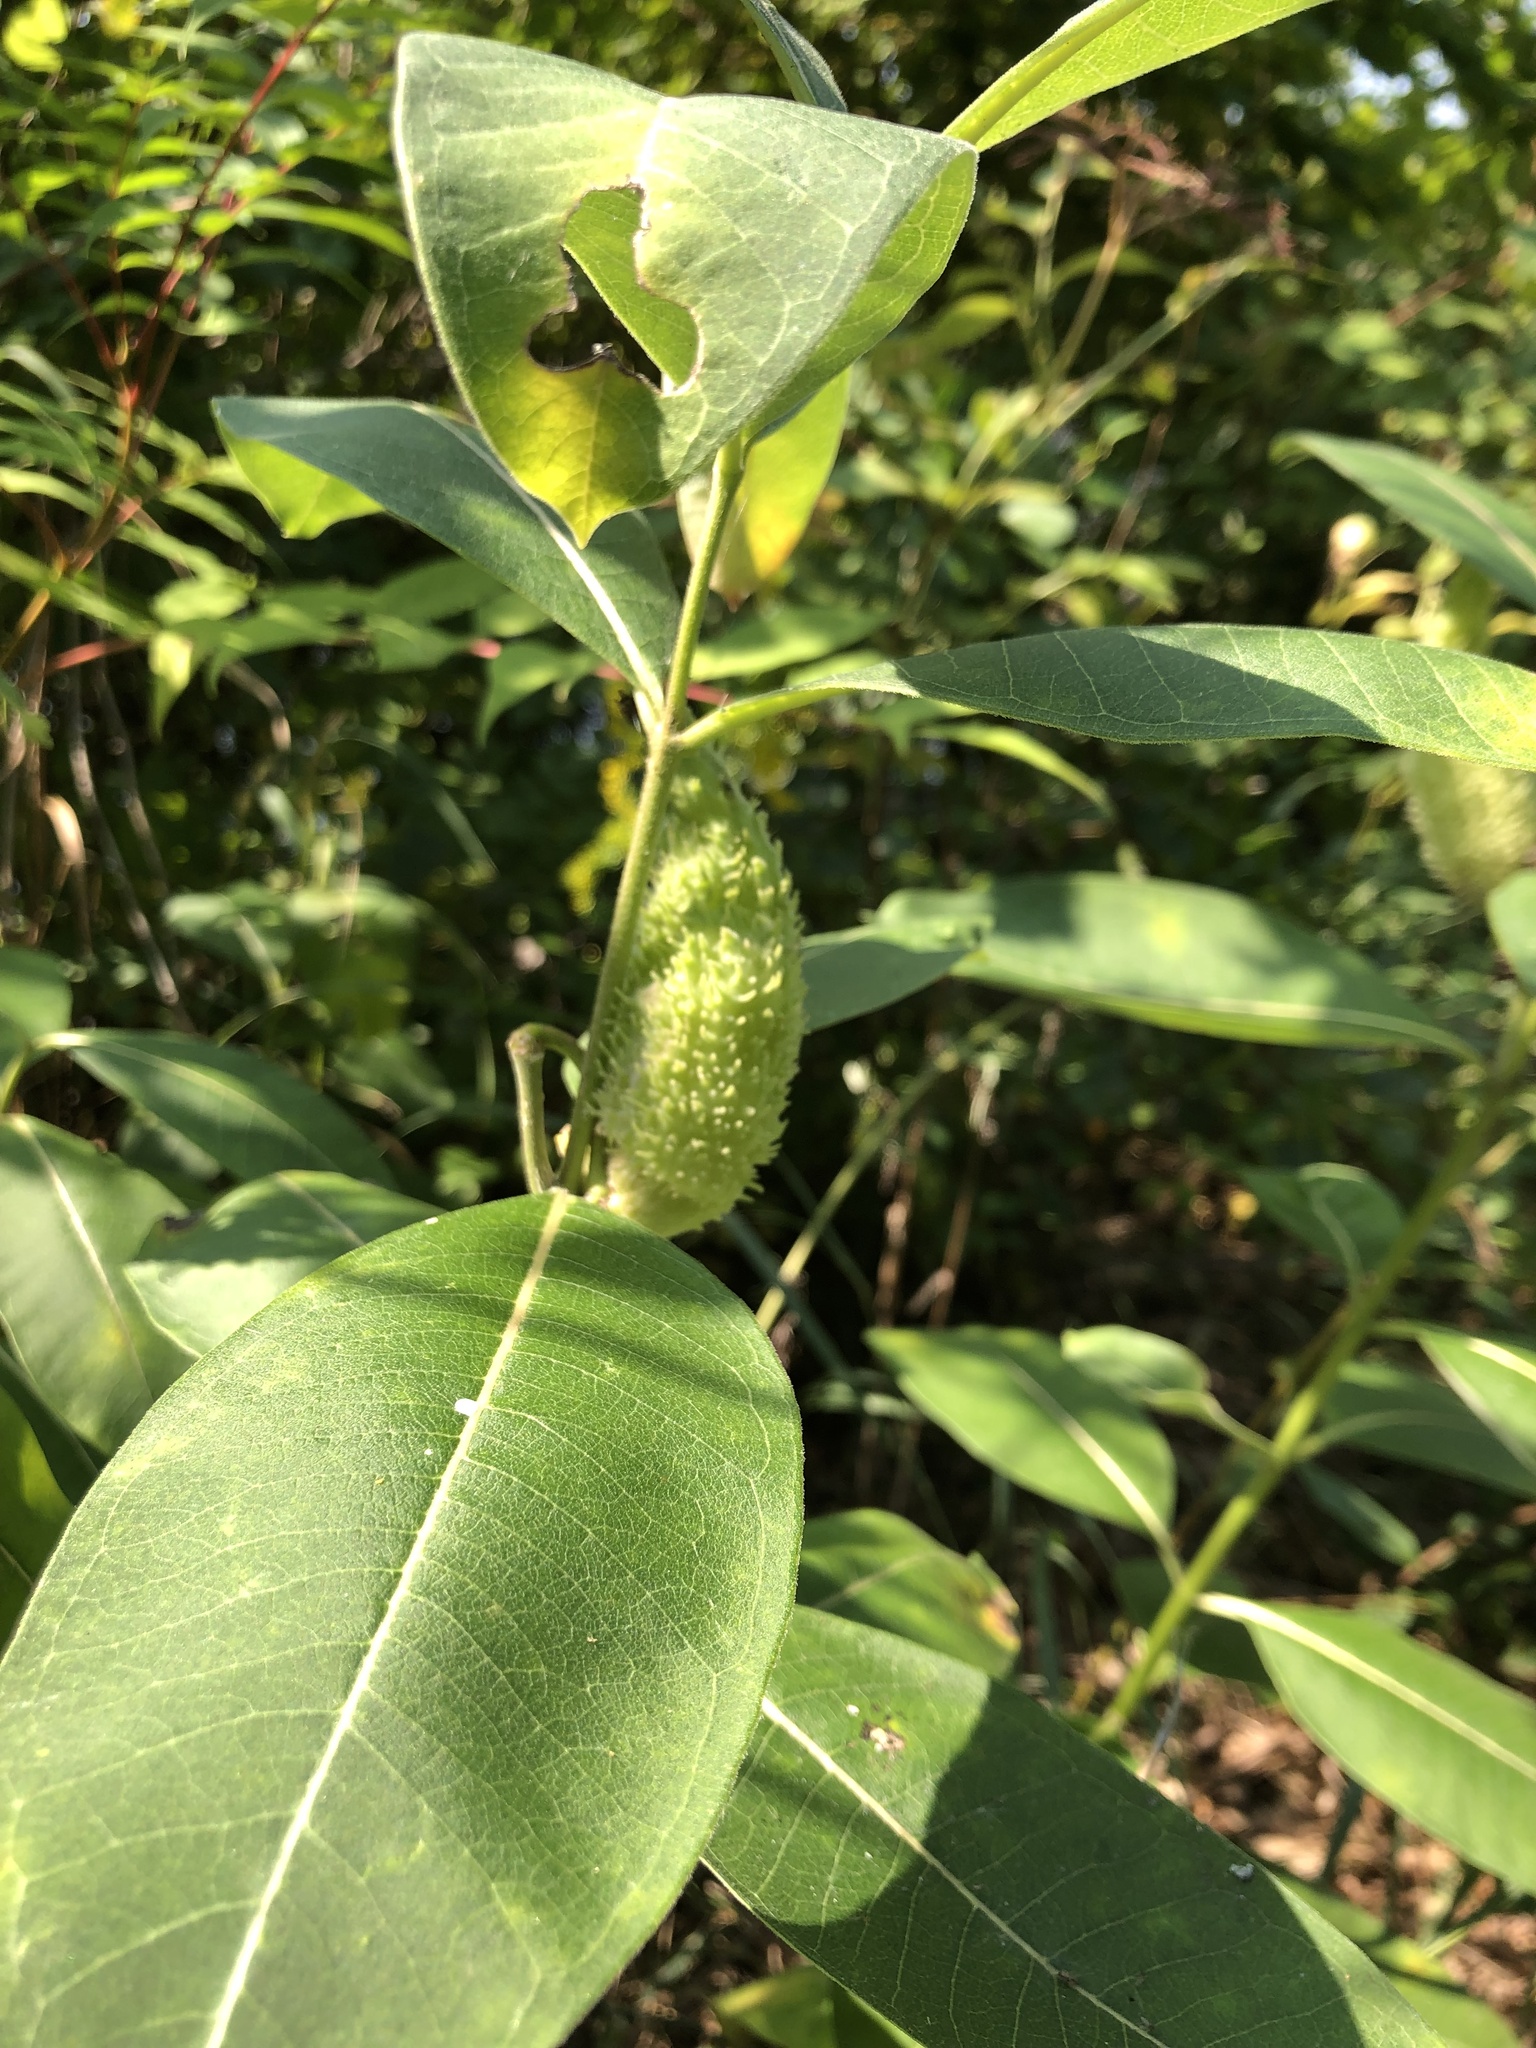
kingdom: Plantae
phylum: Tracheophyta
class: Magnoliopsida
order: Gentianales
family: Apocynaceae
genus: Asclepias
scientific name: Asclepias syriaca
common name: Common milkweed
